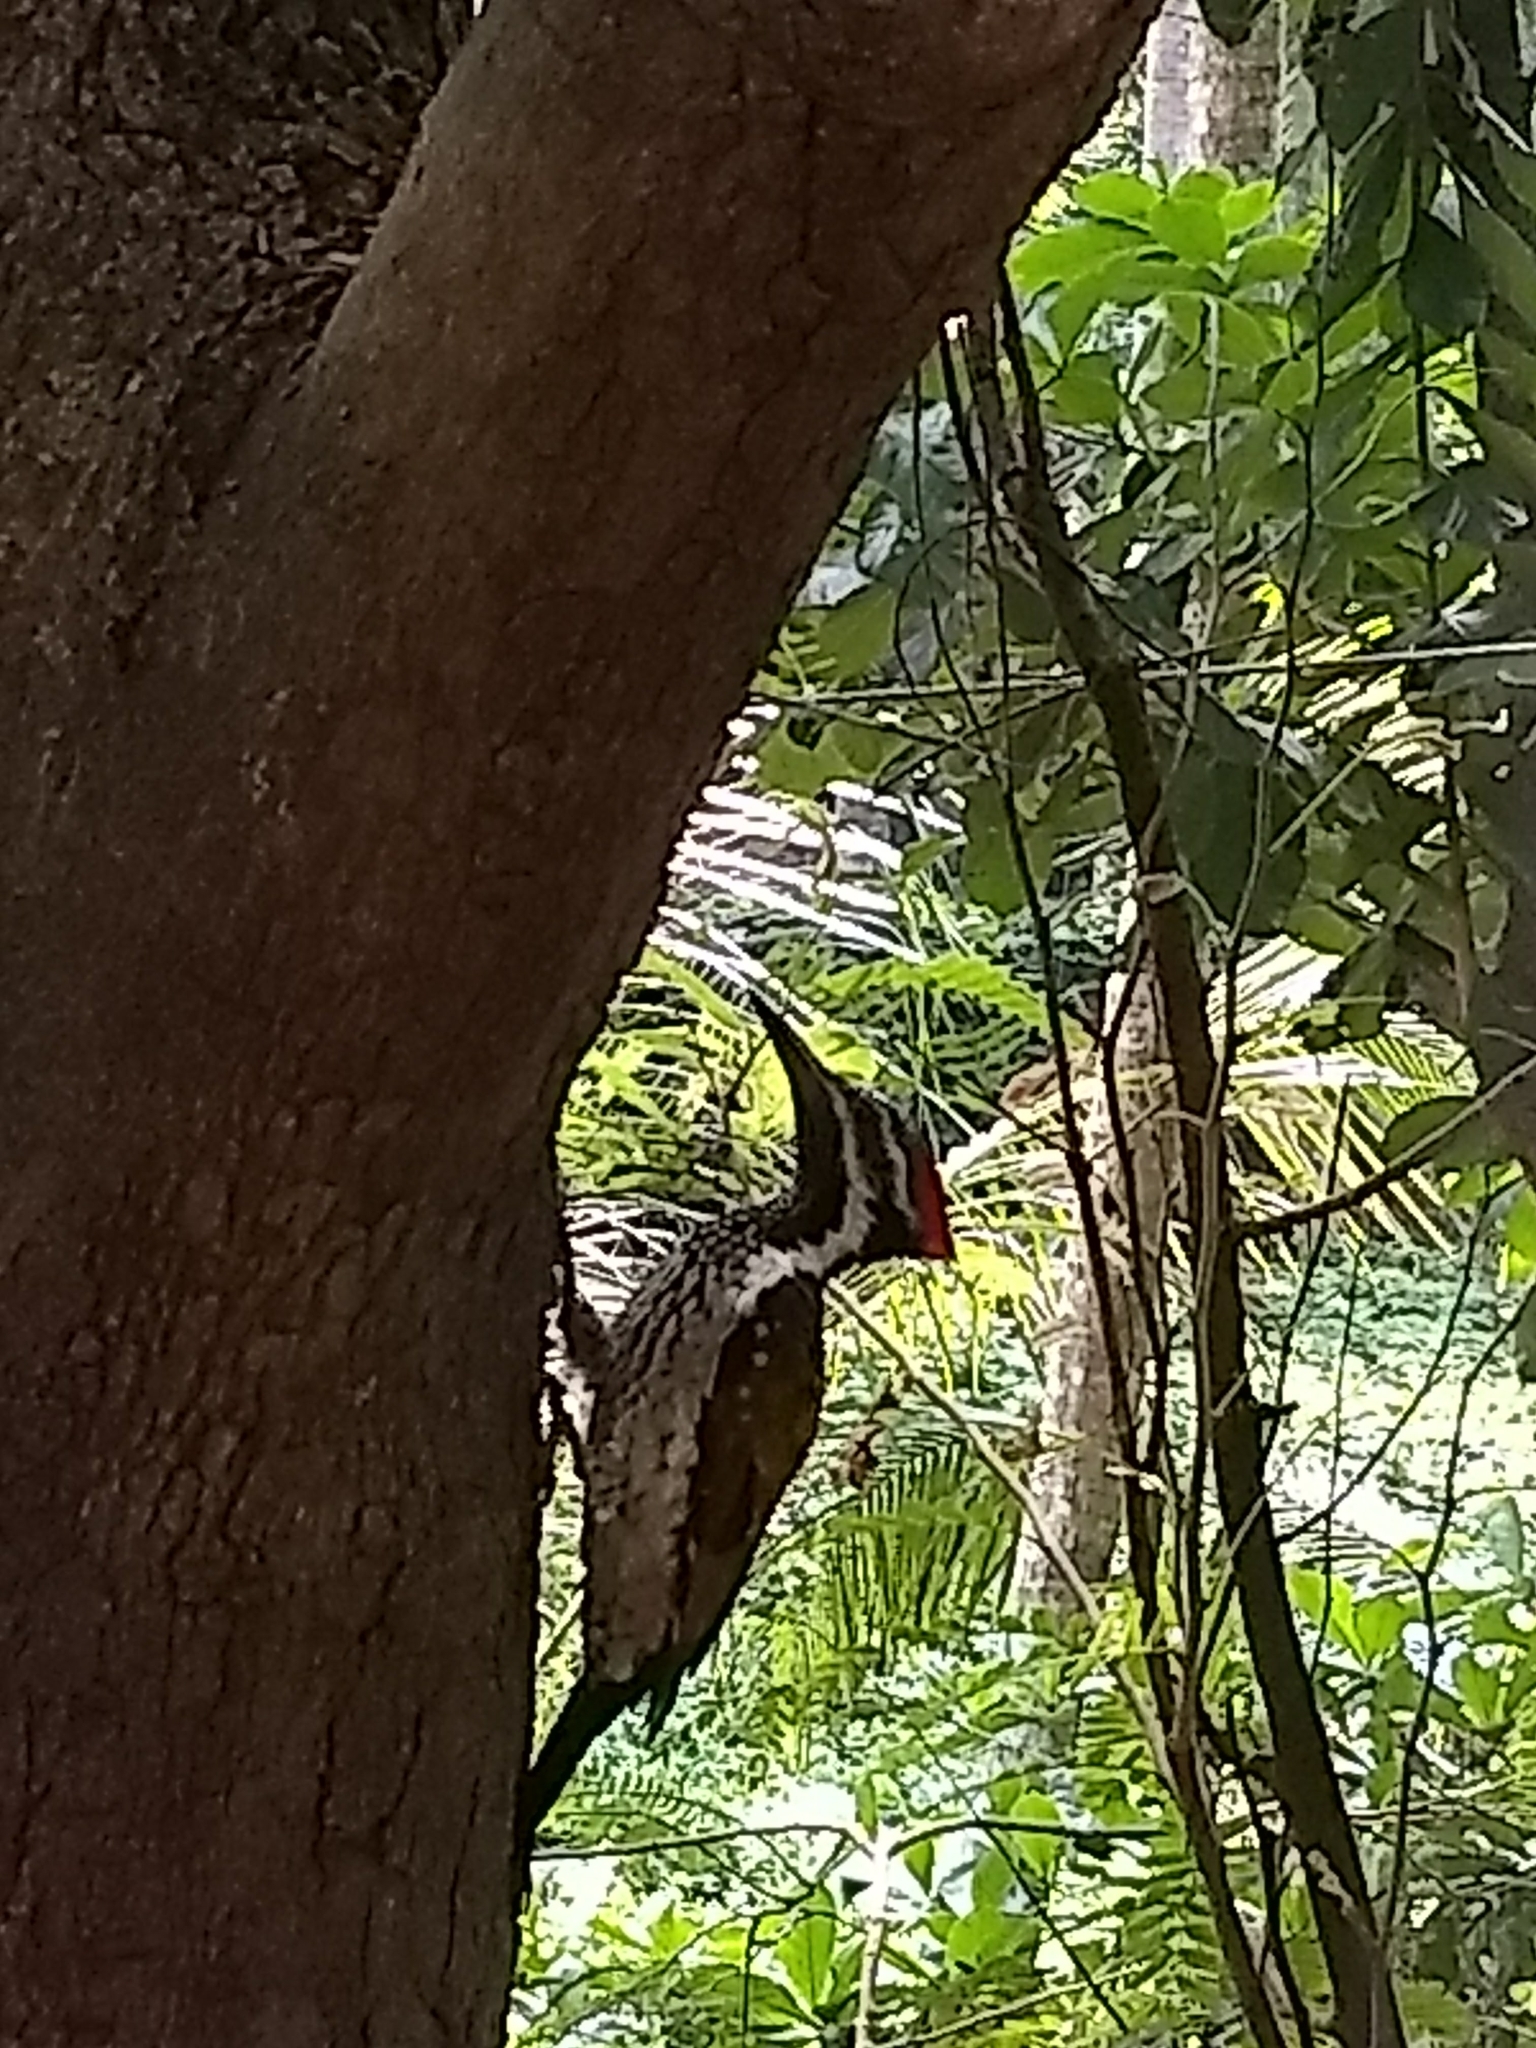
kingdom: Animalia
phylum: Chordata
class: Aves
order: Piciformes
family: Picidae
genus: Dinopium
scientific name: Dinopium benghalense
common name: Black-rumped flameback
